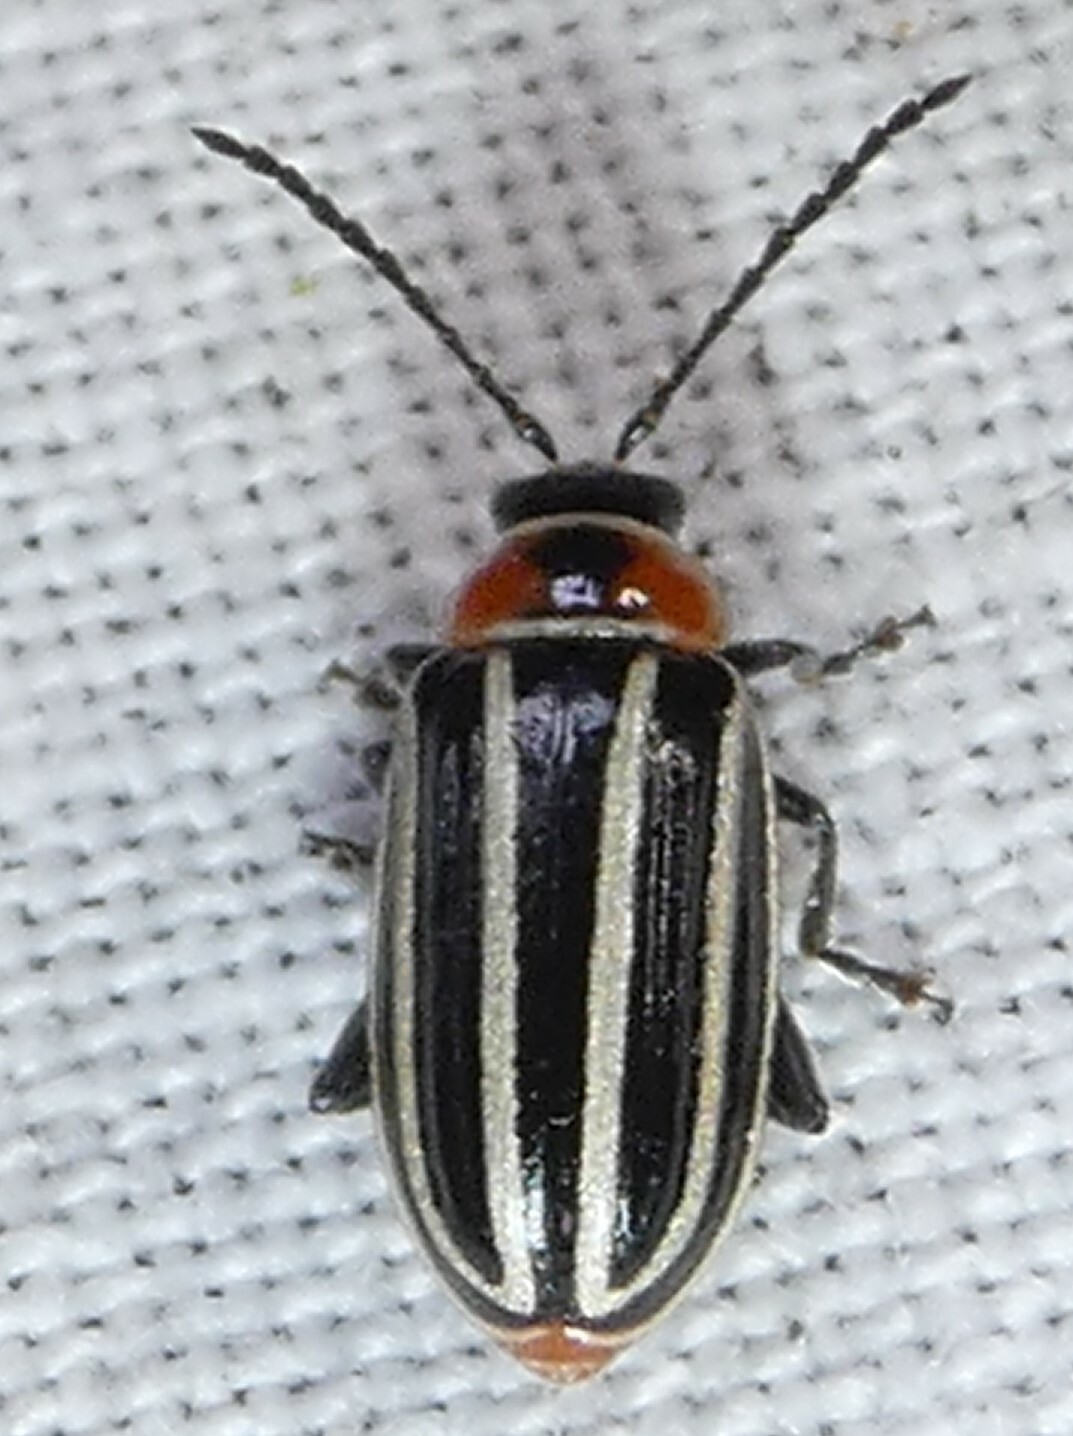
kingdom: Animalia
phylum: Arthropoda
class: Insecta
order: Coleoptera
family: Chrysomelidae
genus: Disonycha
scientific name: Disonycha pensylvanica
